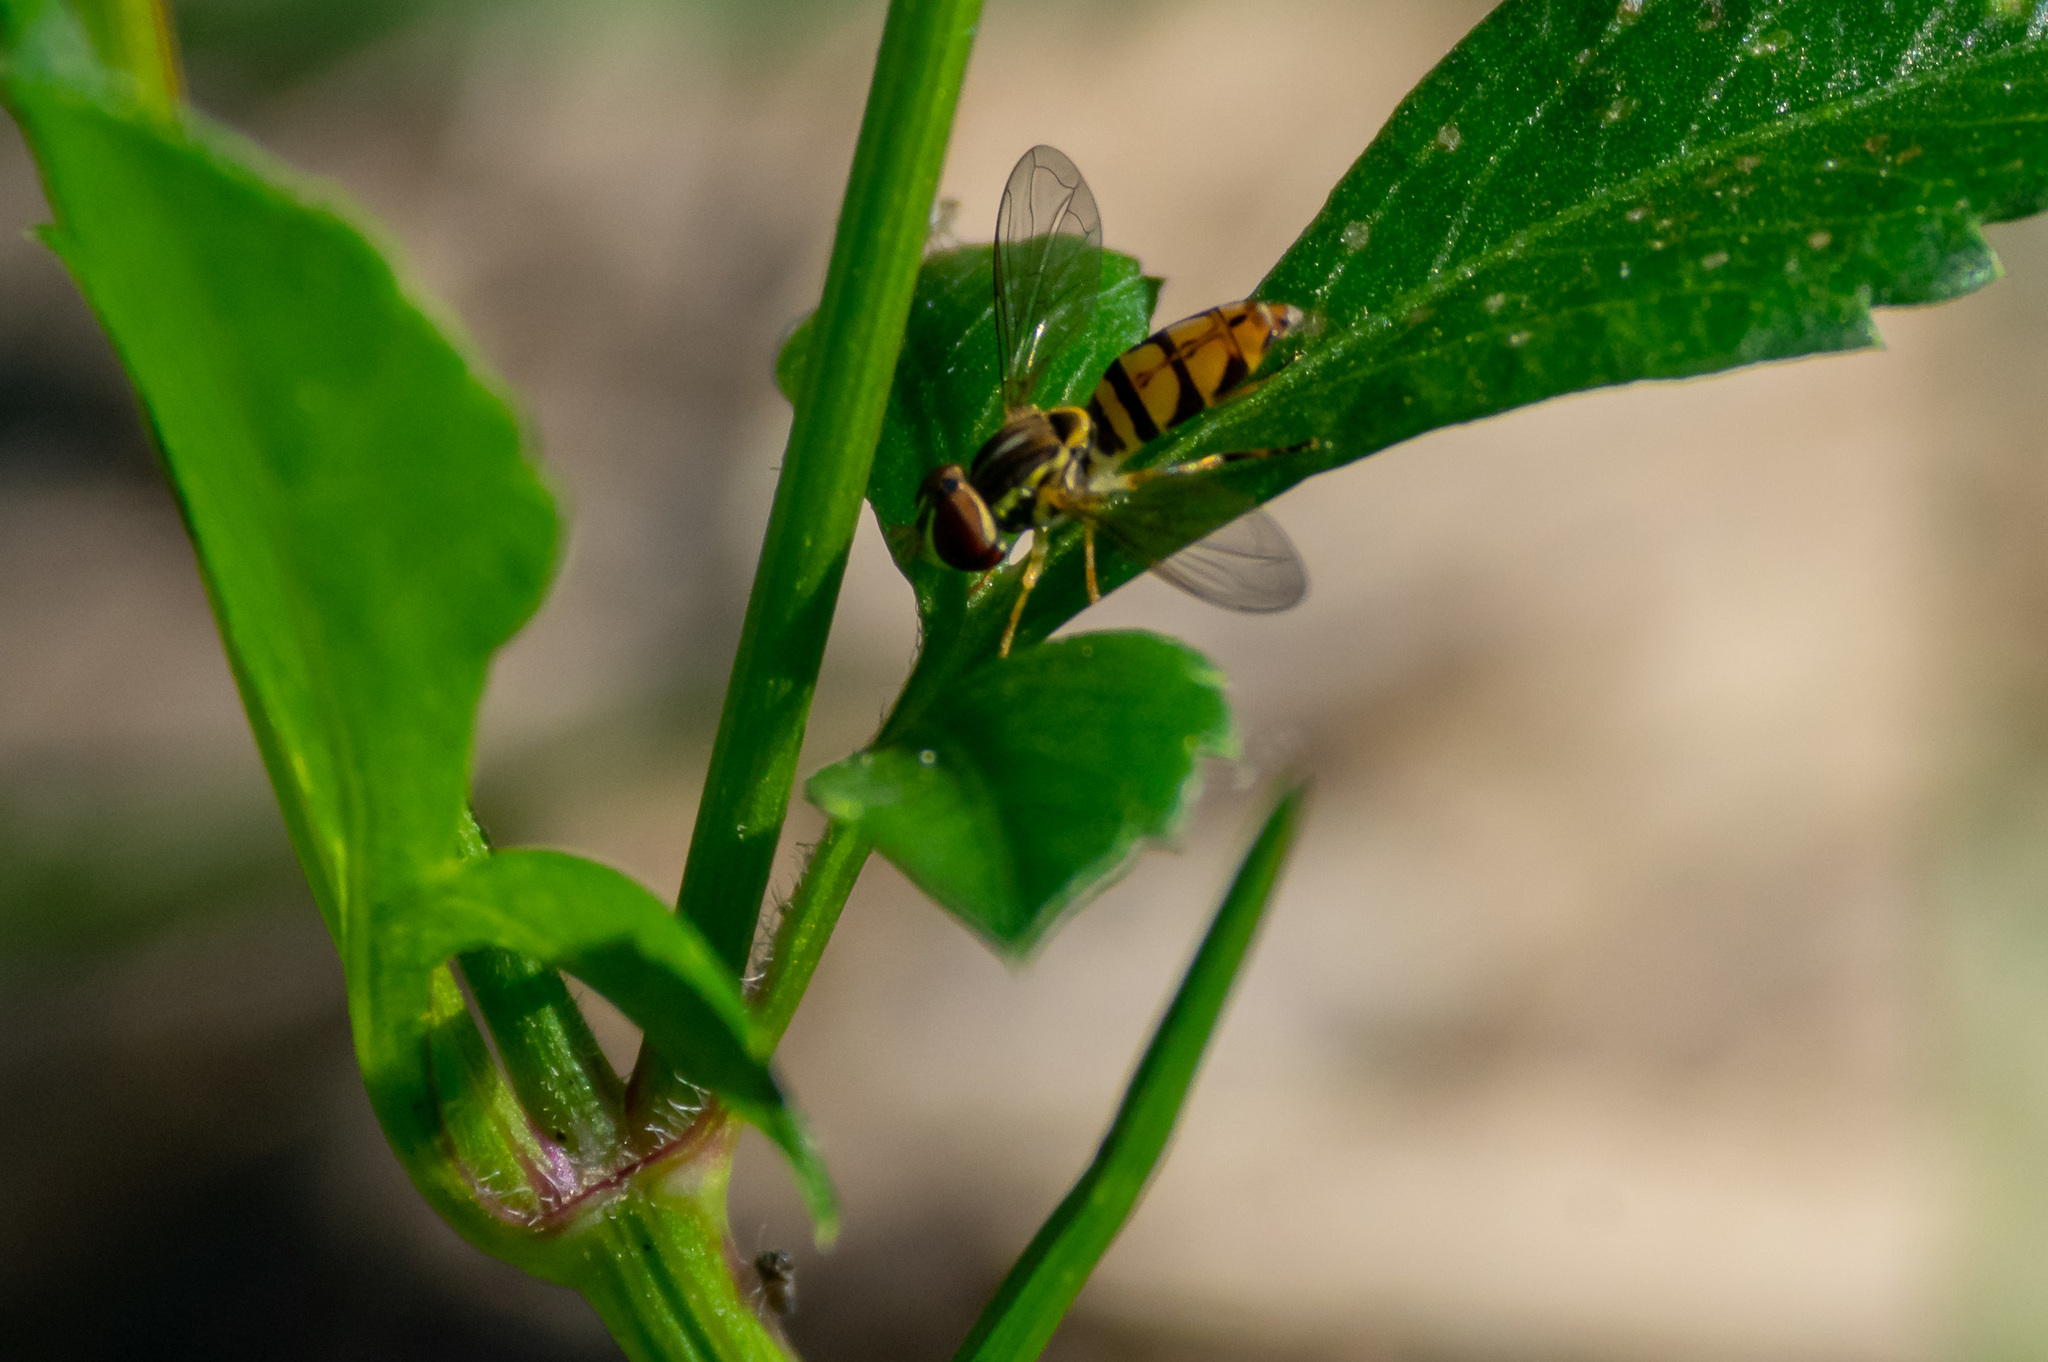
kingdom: Animalia
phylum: Arthropoda
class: Insecta
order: Diptera
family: Syrphidae
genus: Toxomerus
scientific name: Toxomerus floralis
